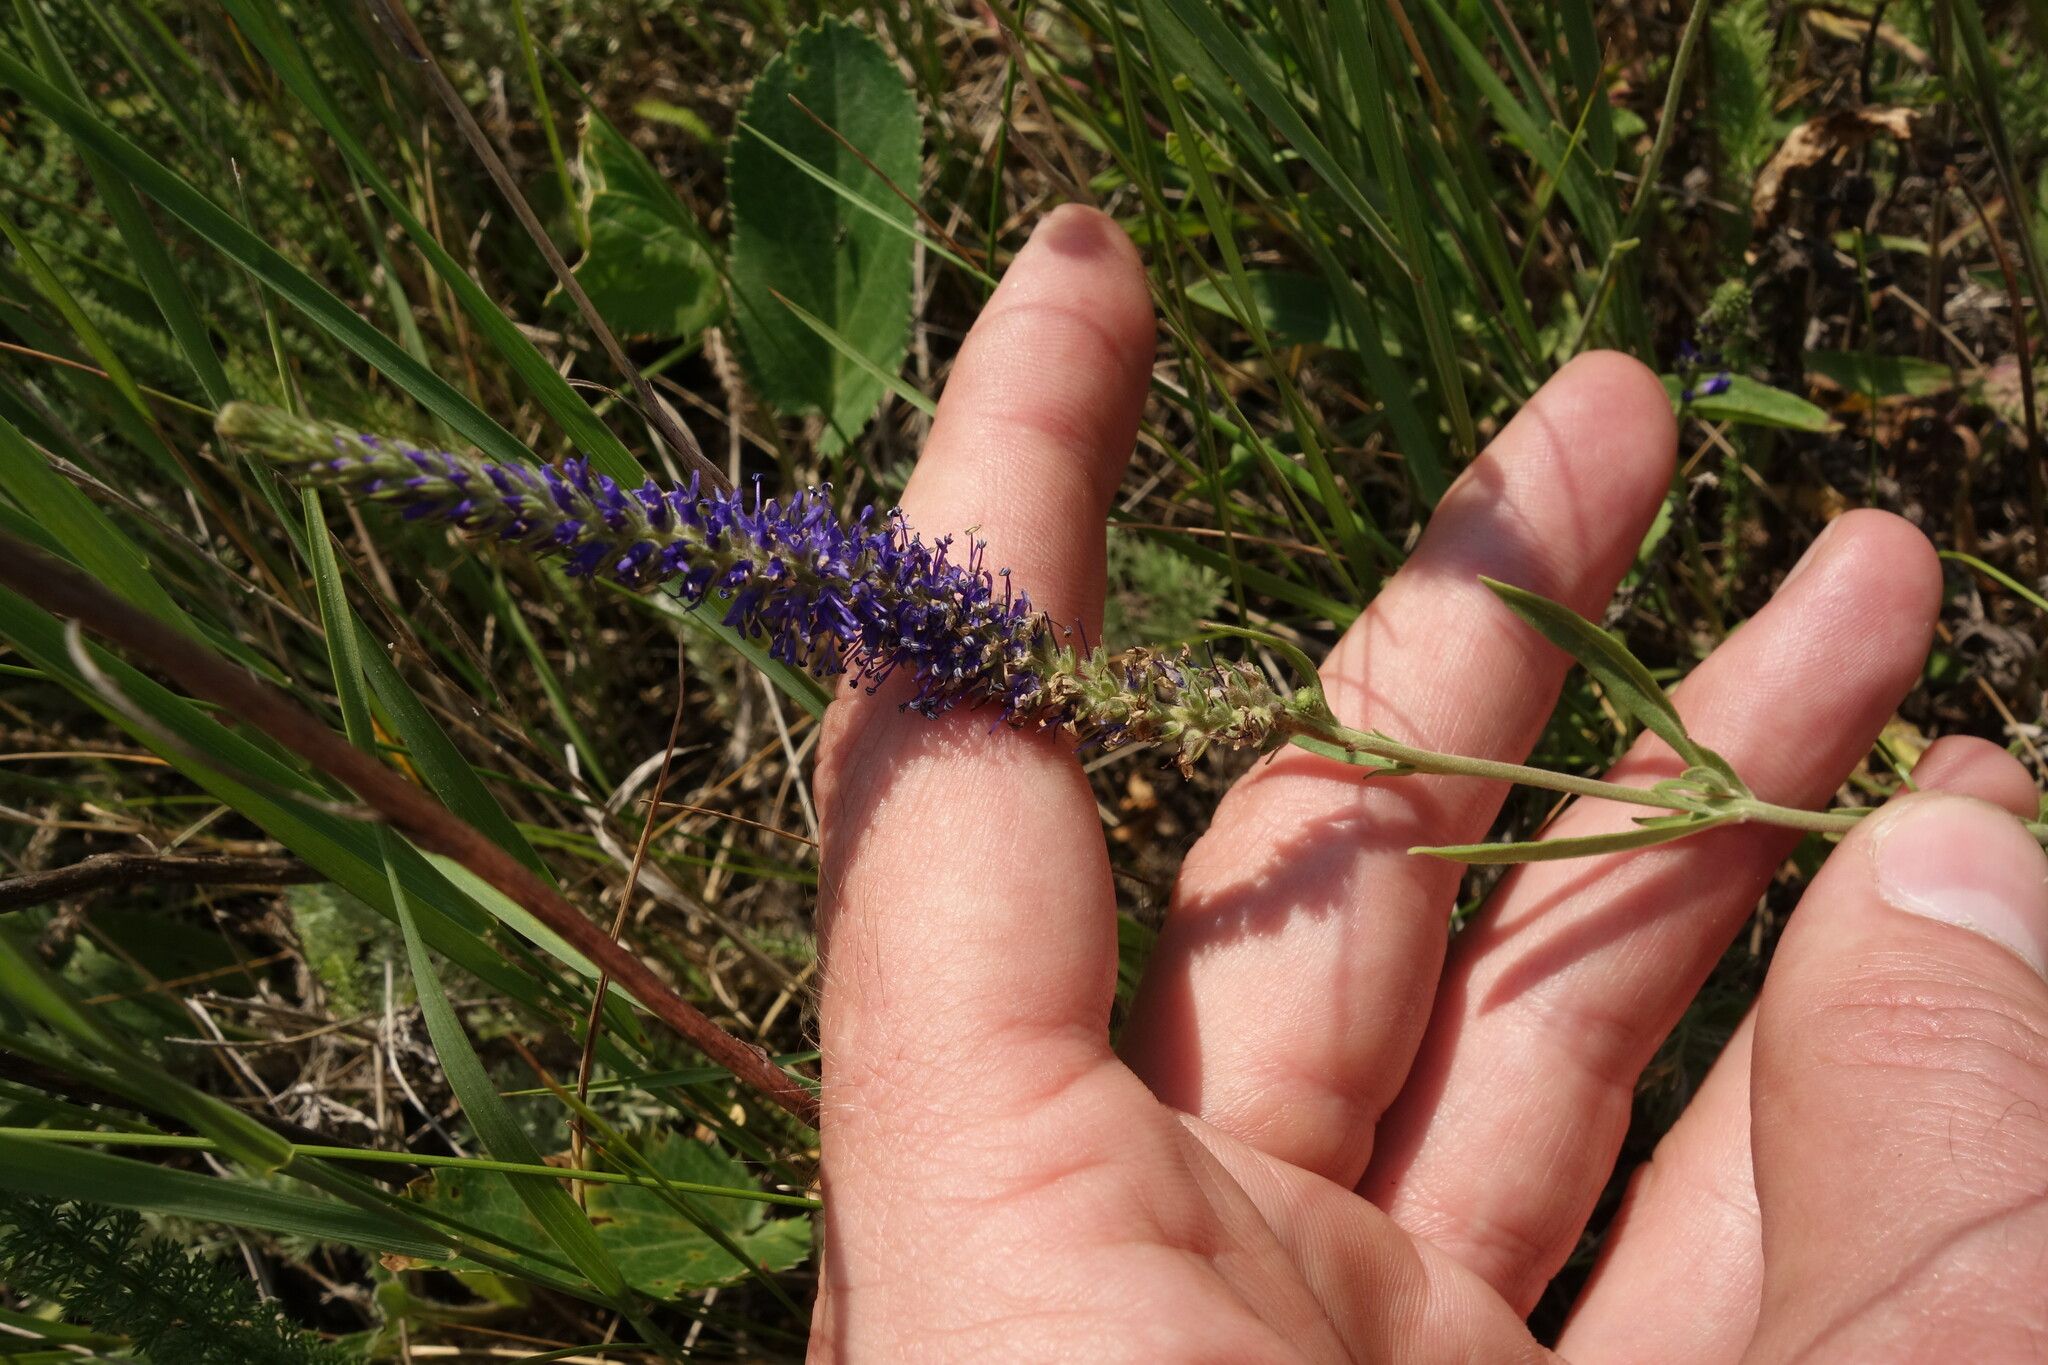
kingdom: Plantae
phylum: Tracheophyta
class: Magnoliopsida
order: Lamiales
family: Plantaginaceae
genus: Veronica
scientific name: Veronica spicata
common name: Spiked speedwell
